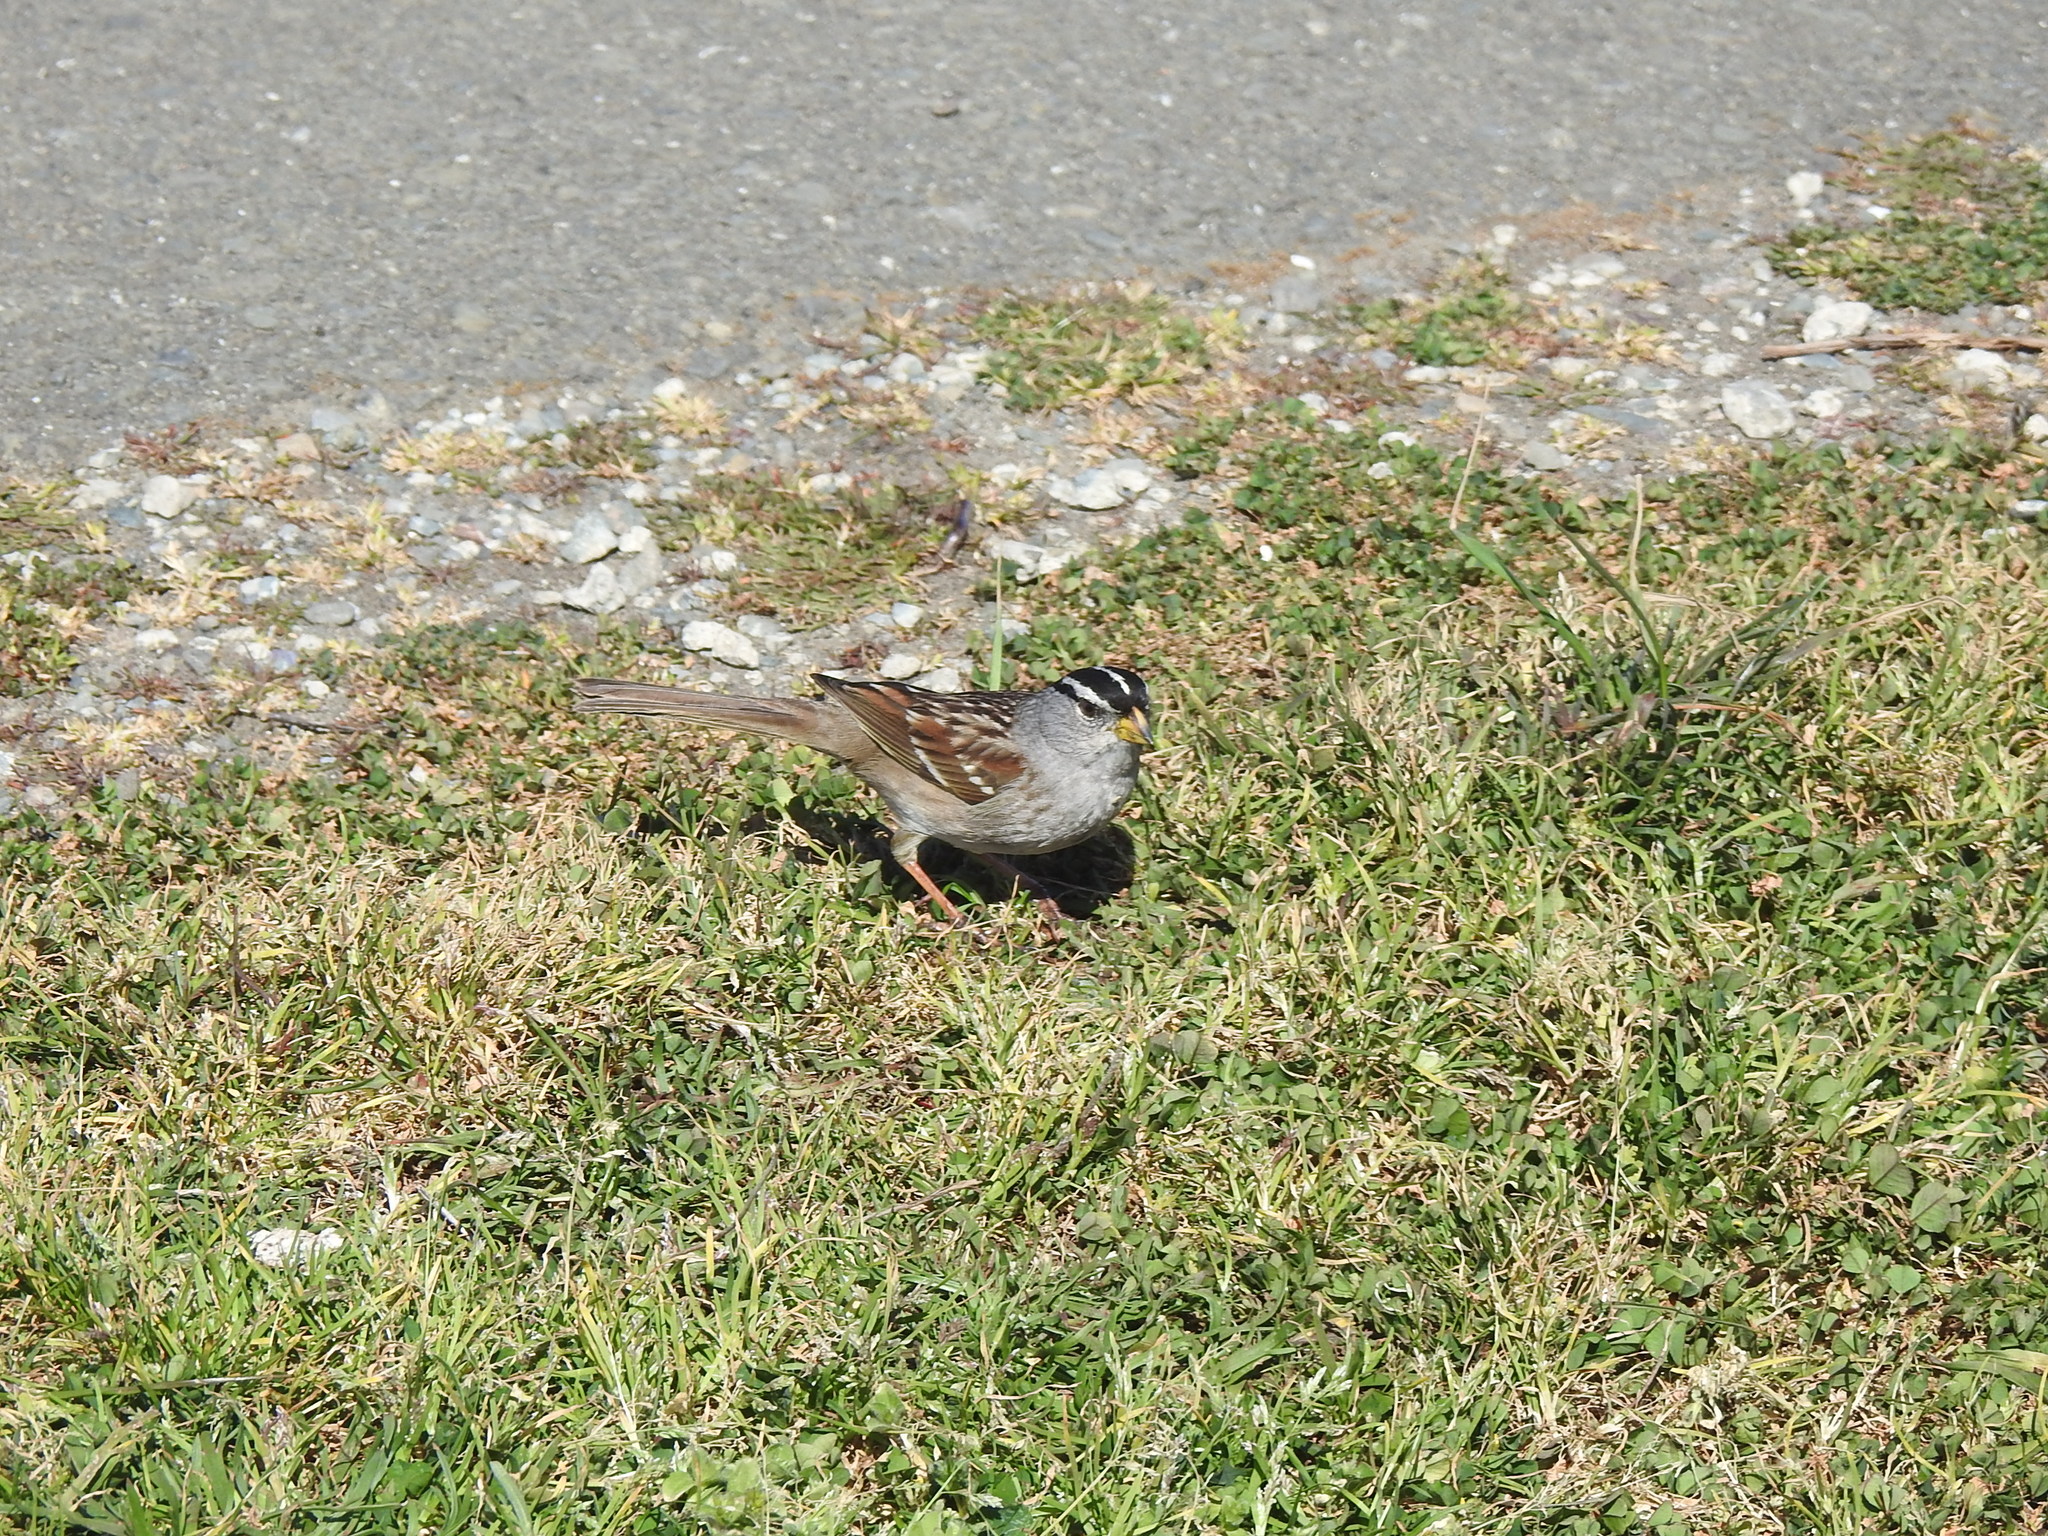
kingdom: Animalia
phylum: Chordata
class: Aves
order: Passeriformes
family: Passerellidae
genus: Zonotrichia
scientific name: Zonotrichia leucophrys
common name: White-crowned sparrow
